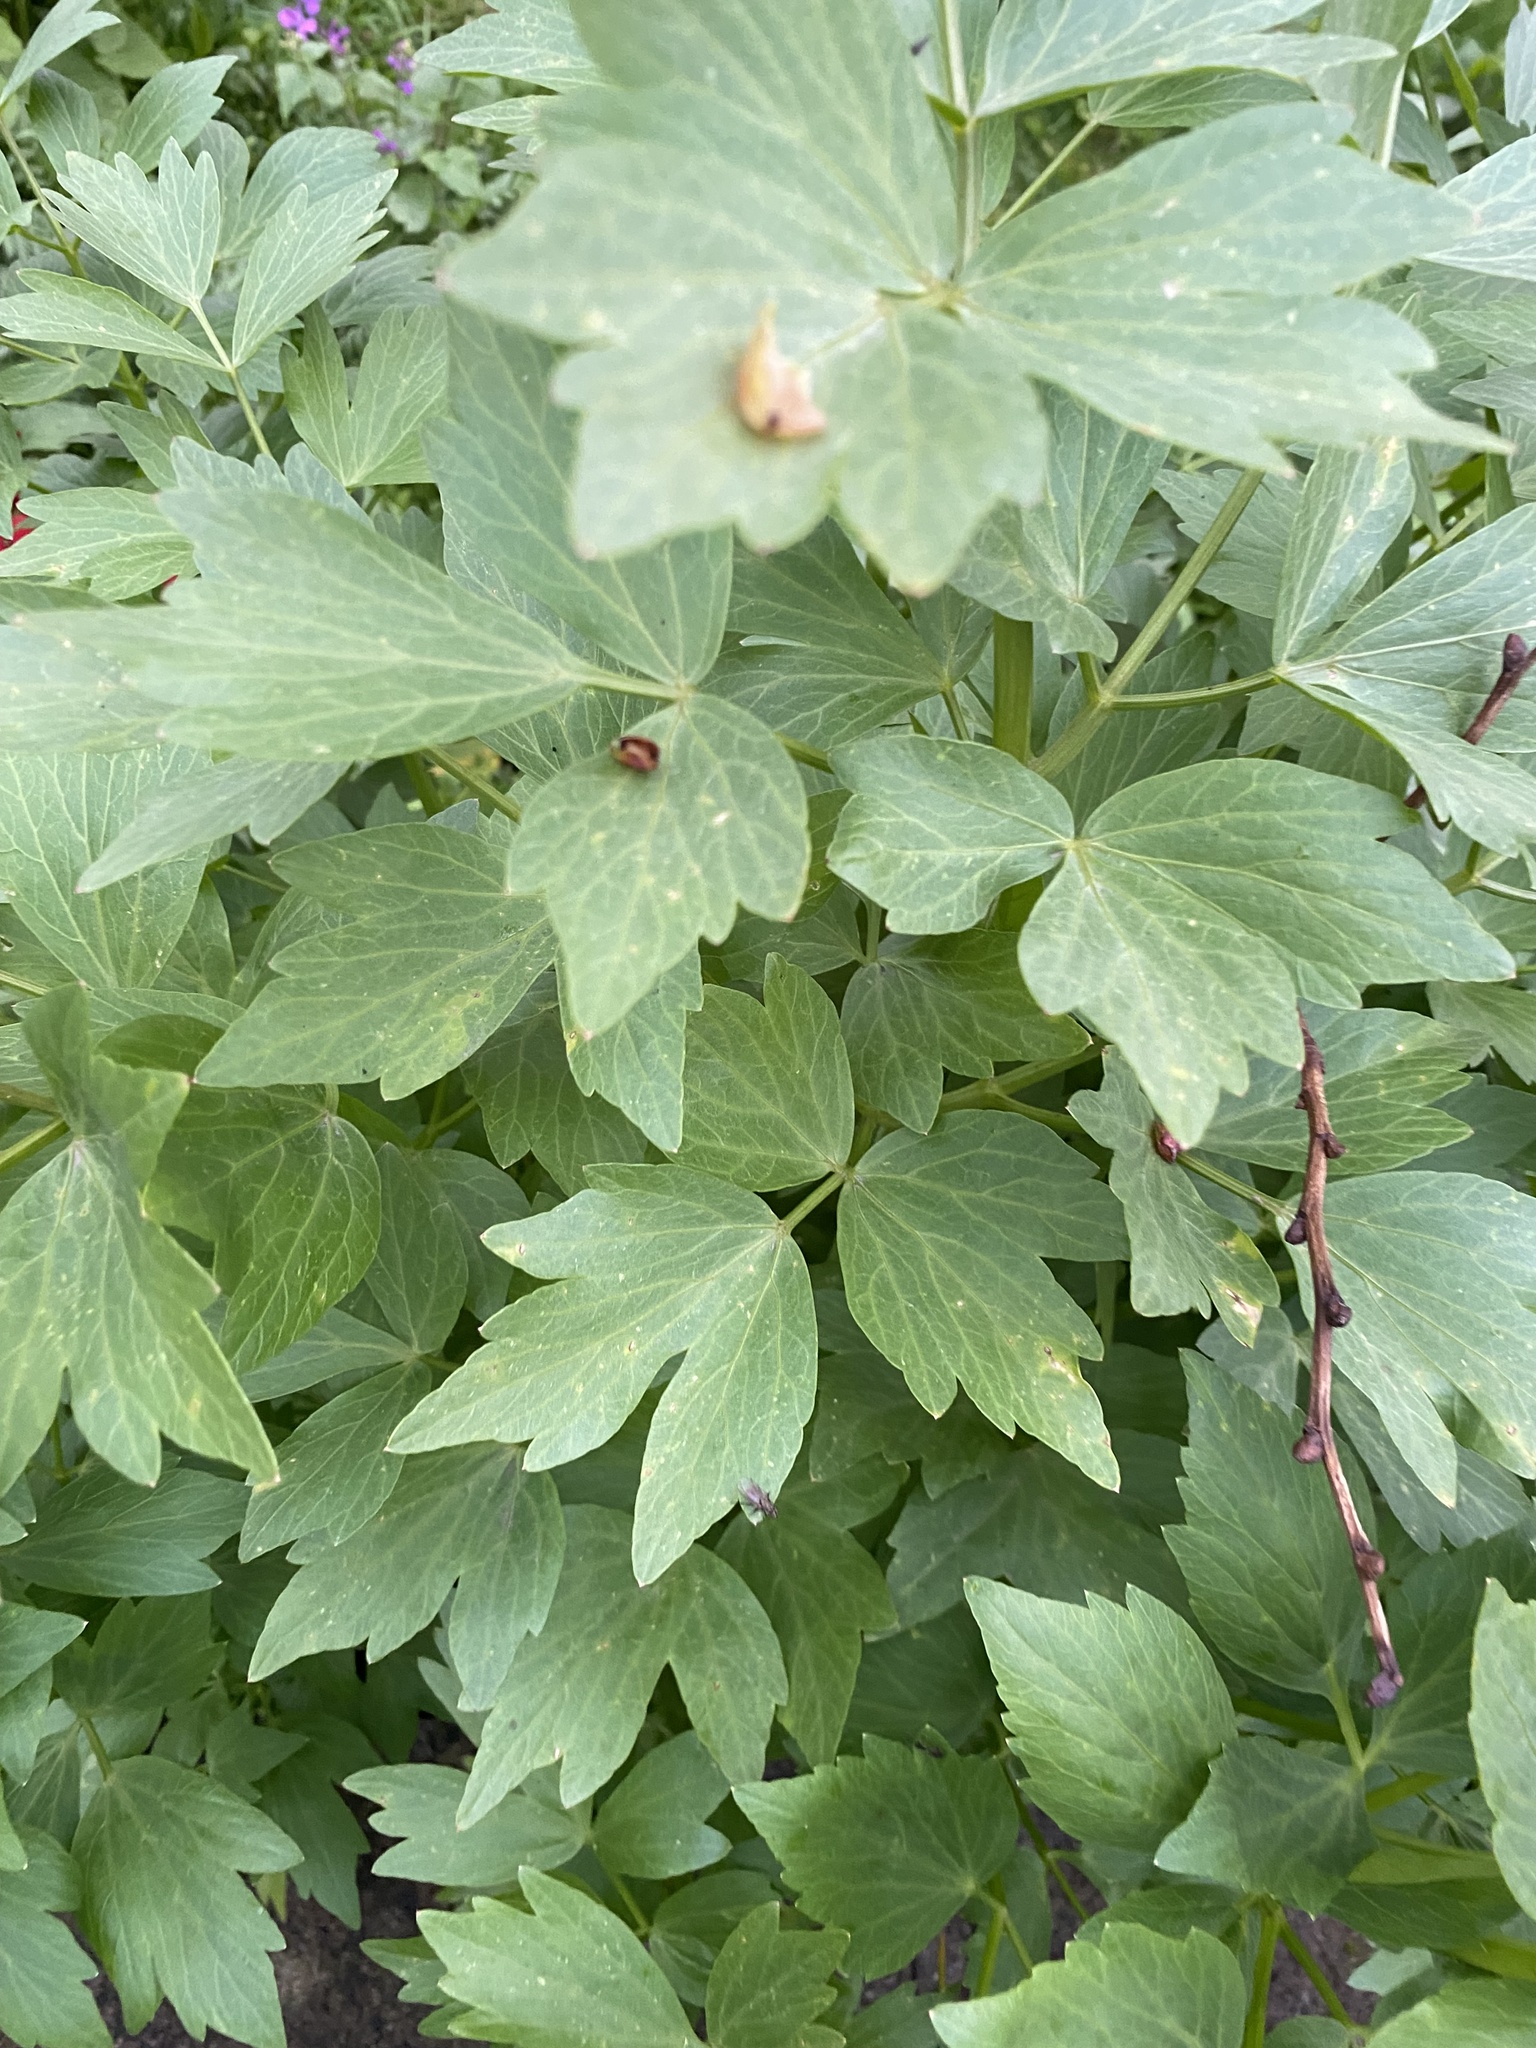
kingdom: Plantae
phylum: Tracheophyta
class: Magnoliopsida
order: Apiales
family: Apiaceae
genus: Levisticum
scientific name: Levisticum officinale
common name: Lovage
